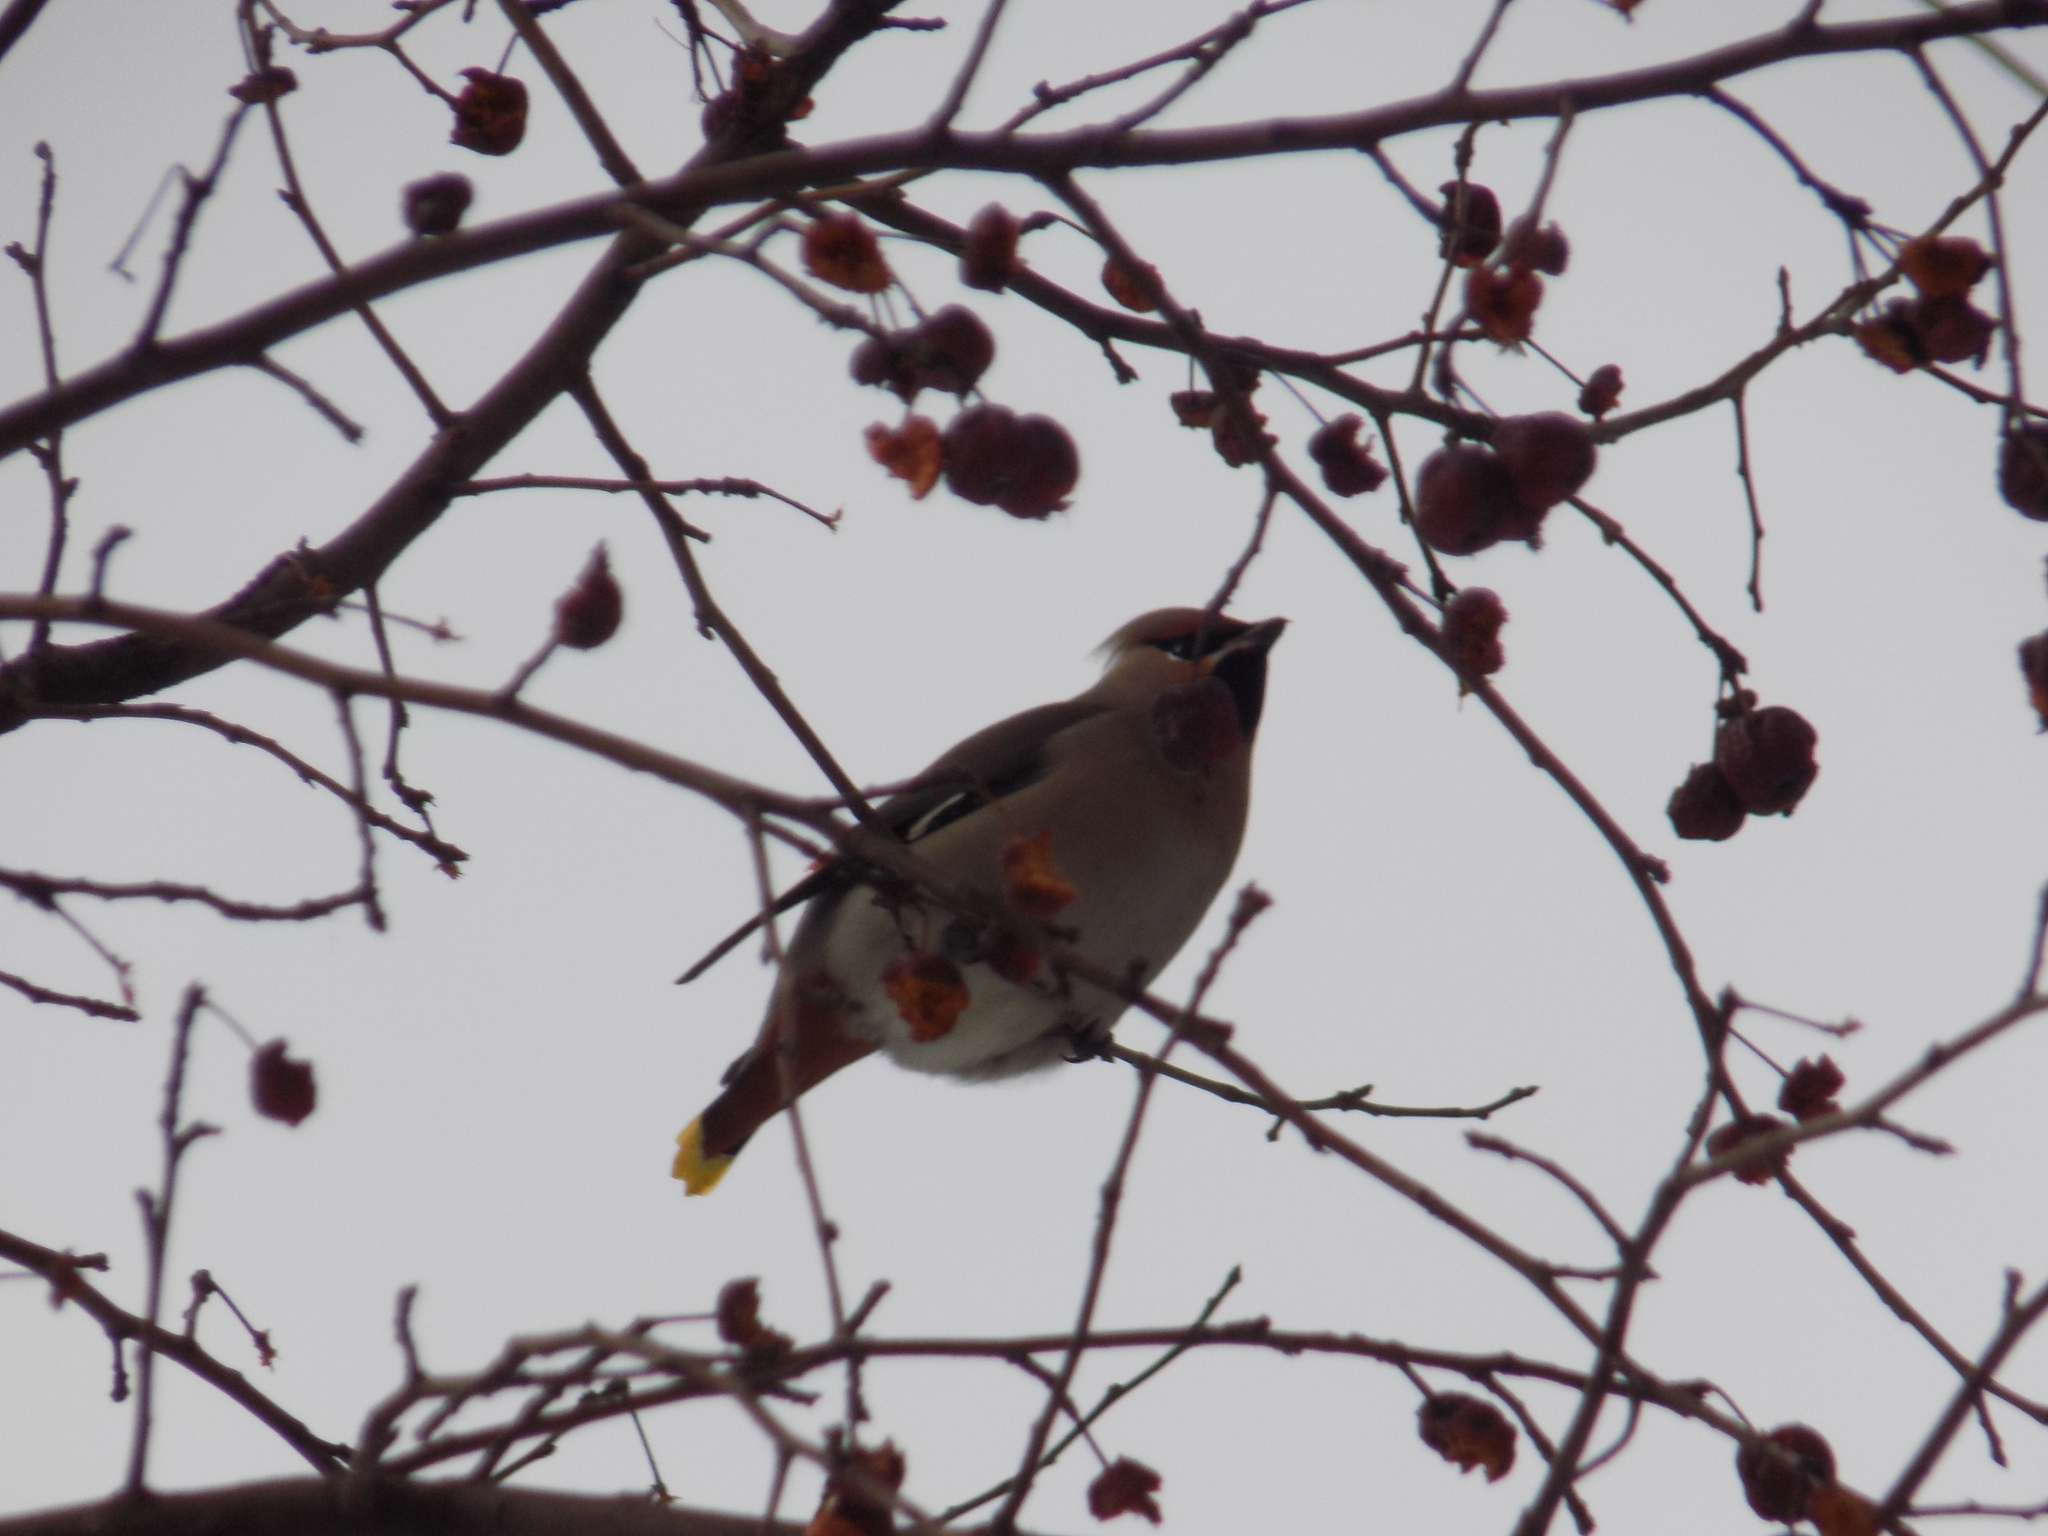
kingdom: Animalia
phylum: Chordata
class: Aves
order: Passeriformes
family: Bombycillidae
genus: Bombycilla
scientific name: Bombycilla garrulus
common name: Bohemian waxwing
